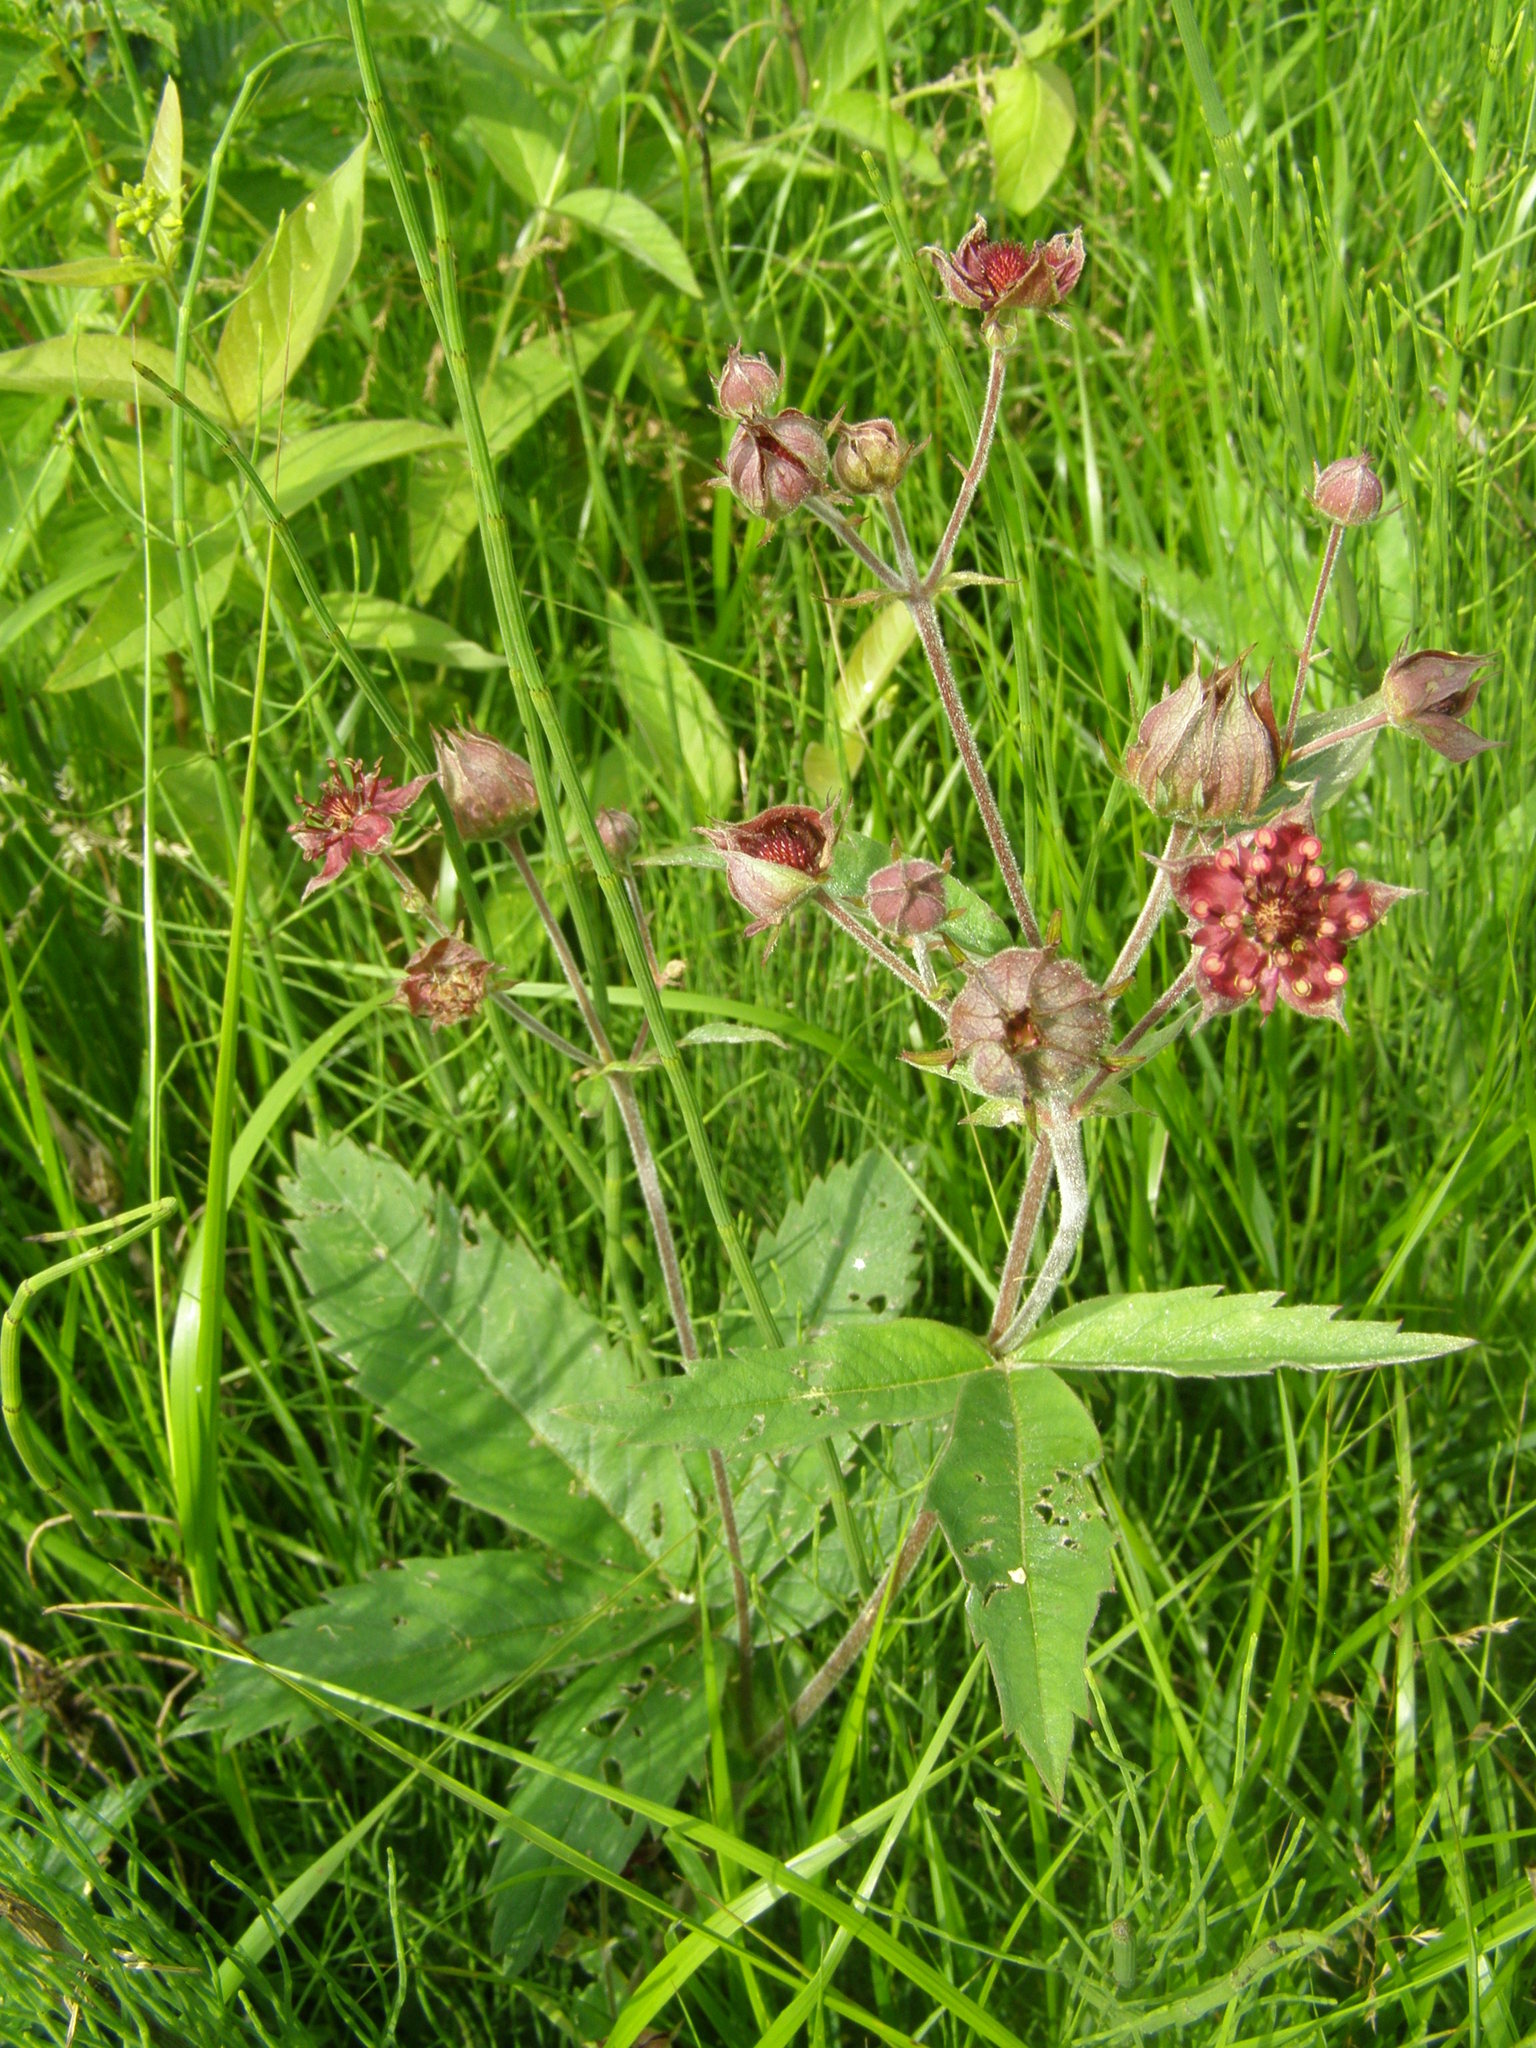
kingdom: Plantae
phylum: Tracheophyta
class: Magnoliopsida
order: Rosales
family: Rosaceae
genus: Comarum
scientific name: Comarum palustre
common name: Marsh cinquefoil
